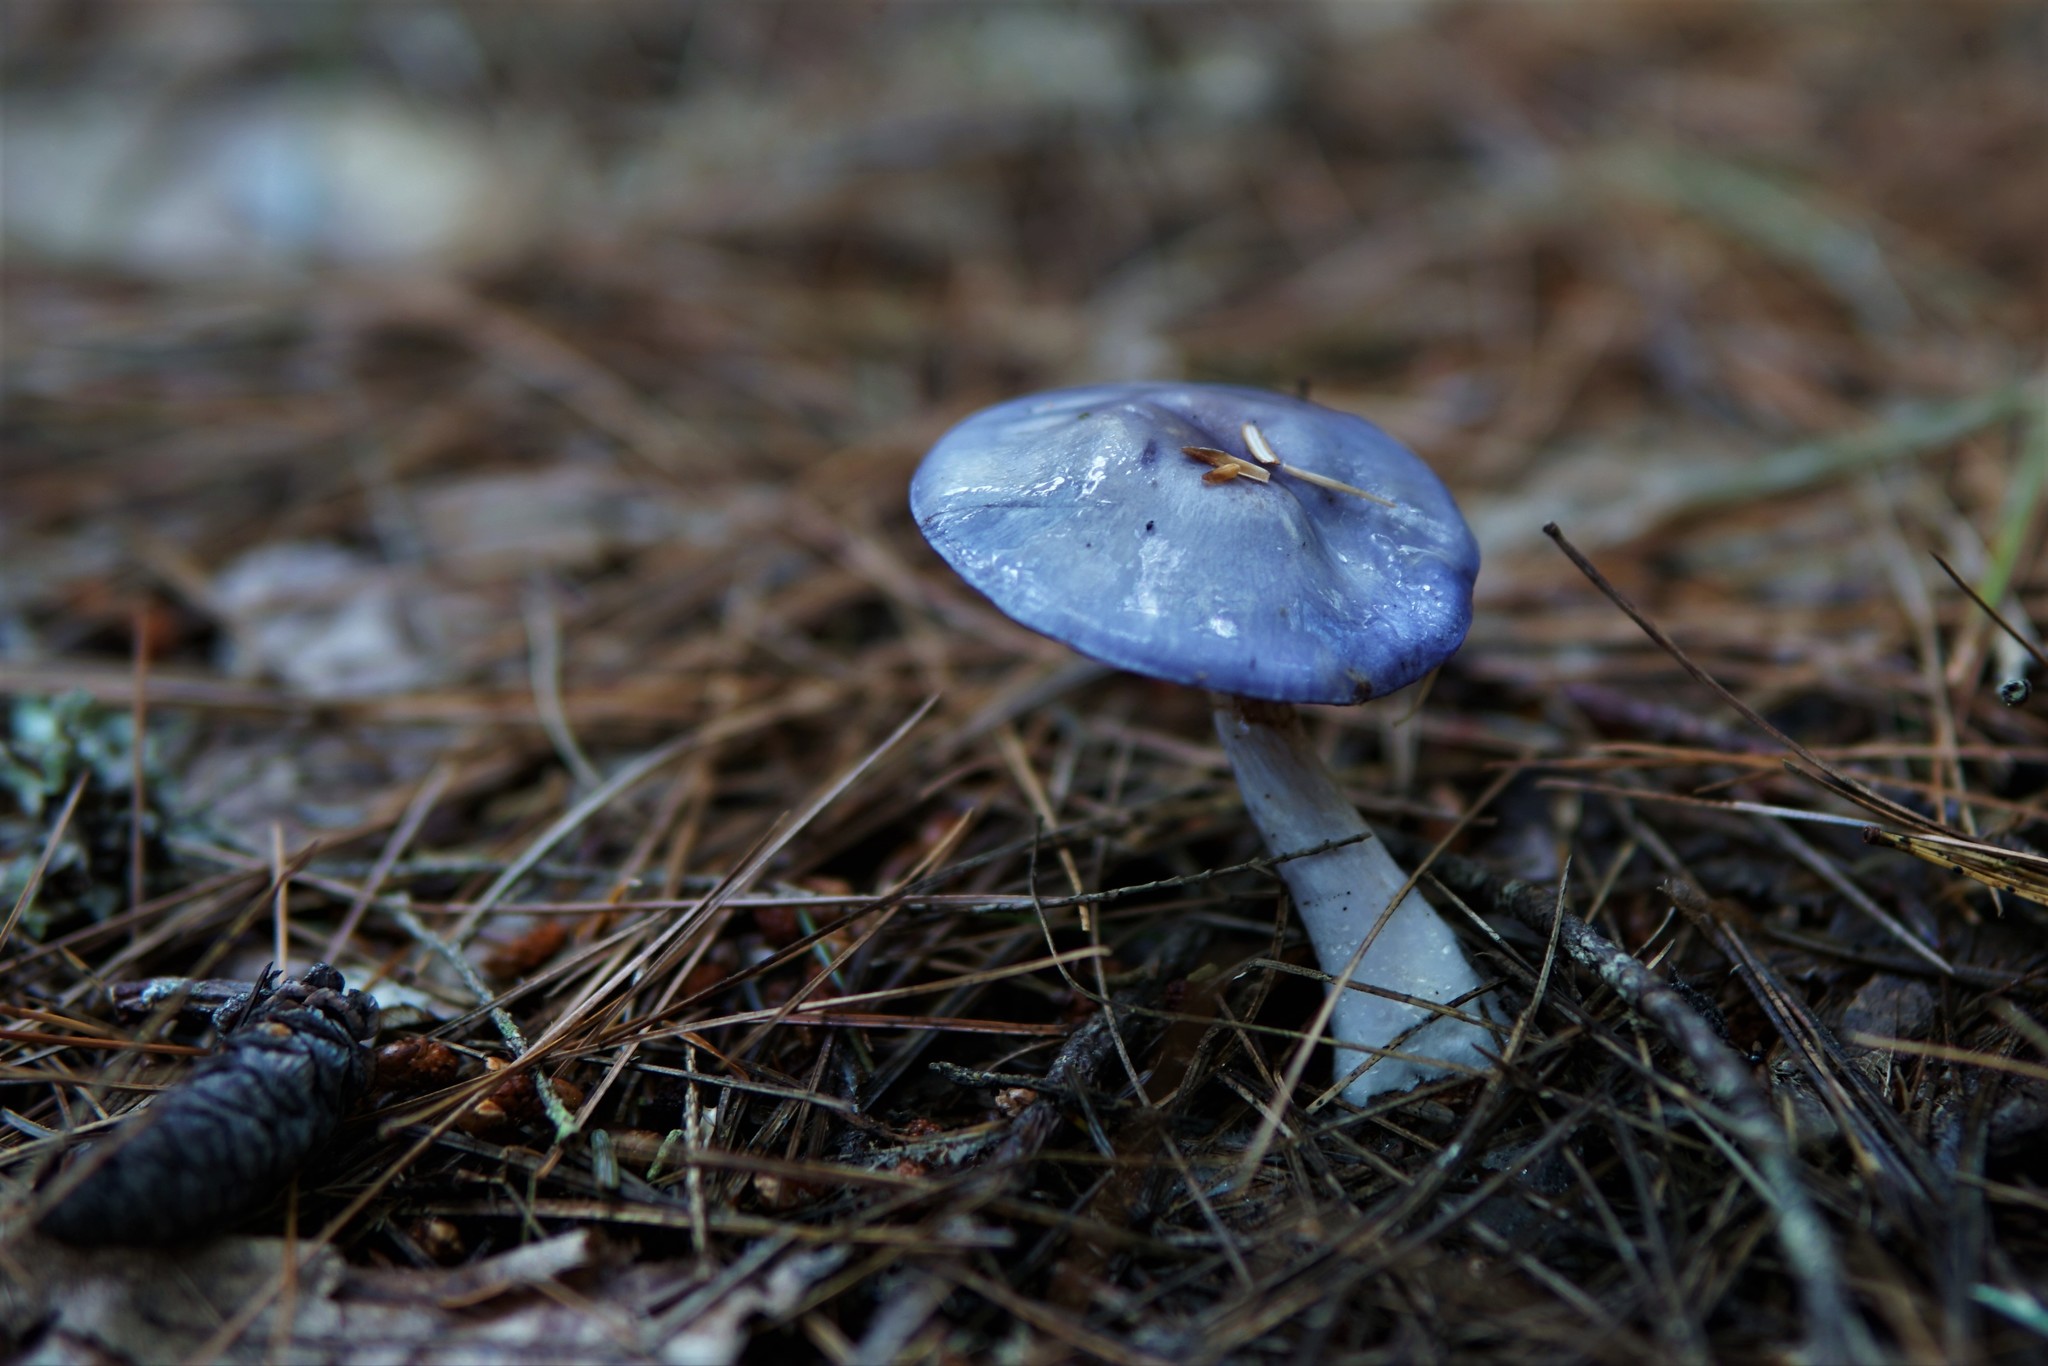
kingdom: Fungi
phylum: Basidiomycota
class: Agaricomycetes
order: Agaricales
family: Cortinariaceae
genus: Cortinarius
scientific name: Cortinarius iodeoides
